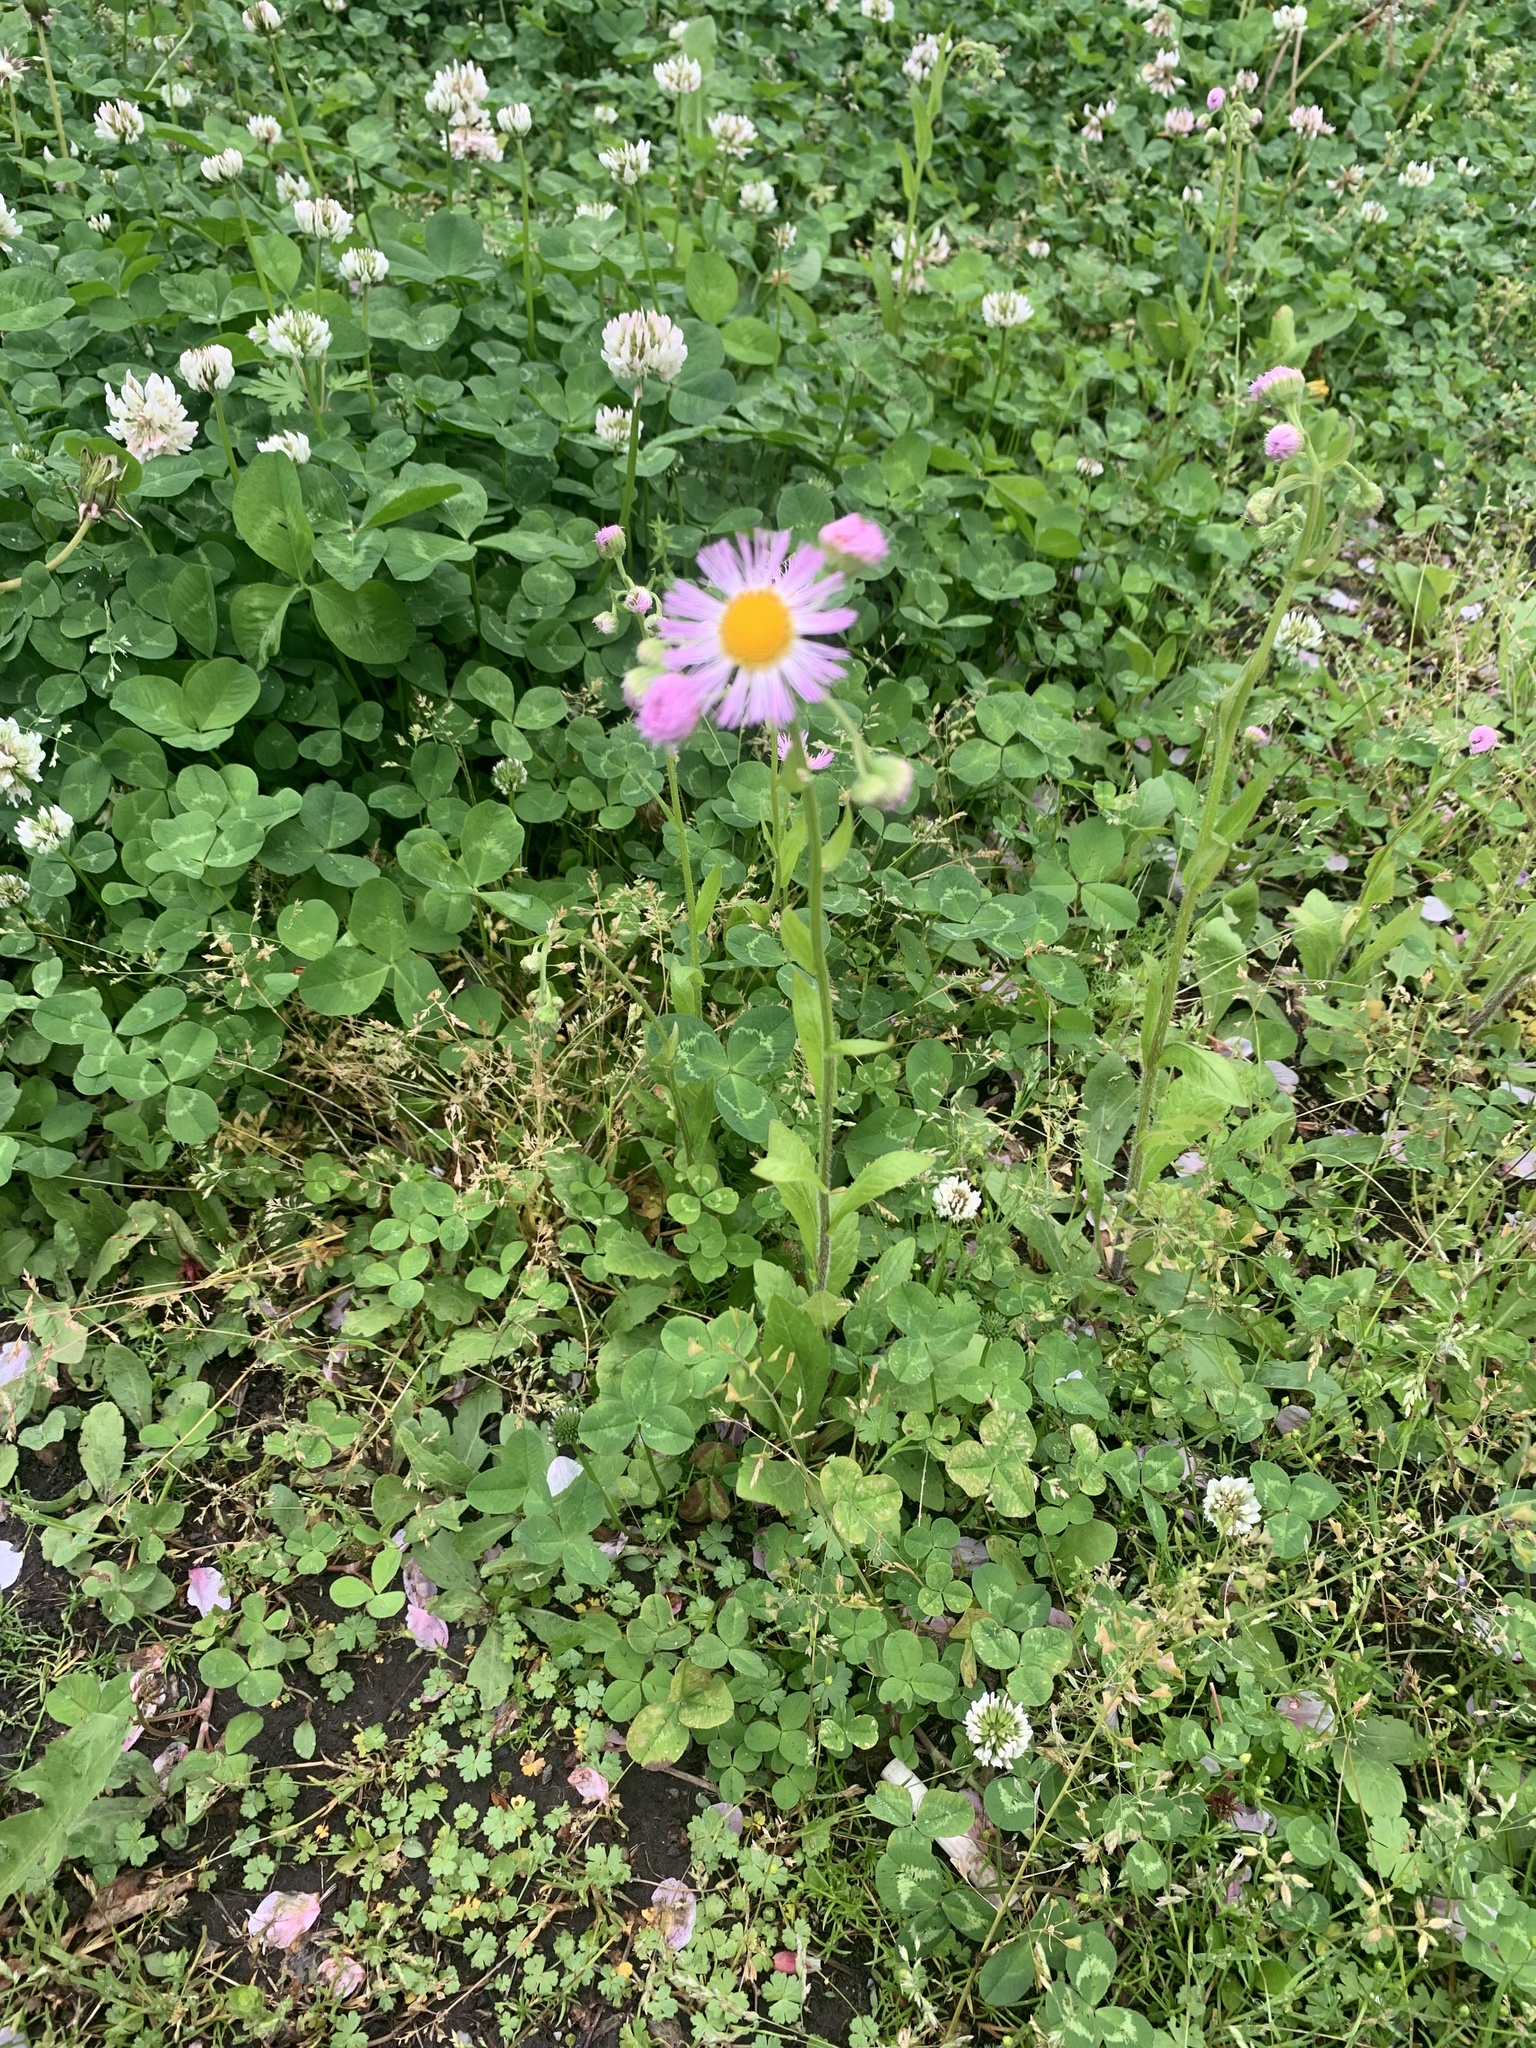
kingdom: Plantae
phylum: Tracheophyta
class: Magnoliopsida
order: Asterales
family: Asteraceae
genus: Erigeron
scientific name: Erigeron philadelphicus
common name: Robin's-plantain
